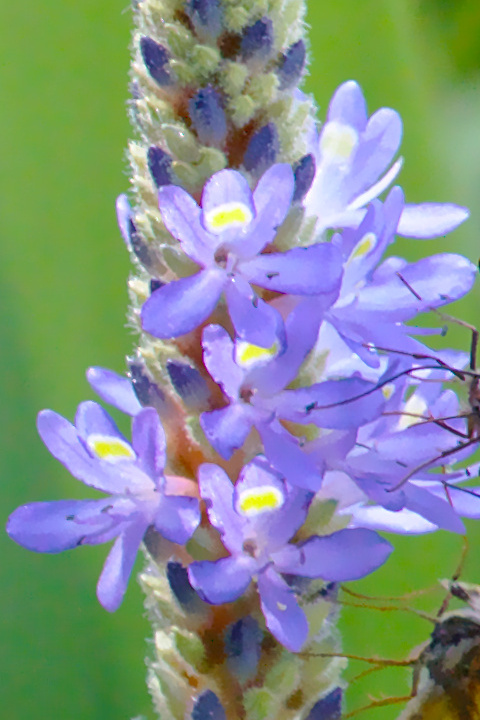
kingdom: Plantae
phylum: Tracheophyta
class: Liliopsida
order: Commelinales
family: Pontederiaceae
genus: Pontederia
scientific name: Pontederia cordata
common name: Pickerelweed
